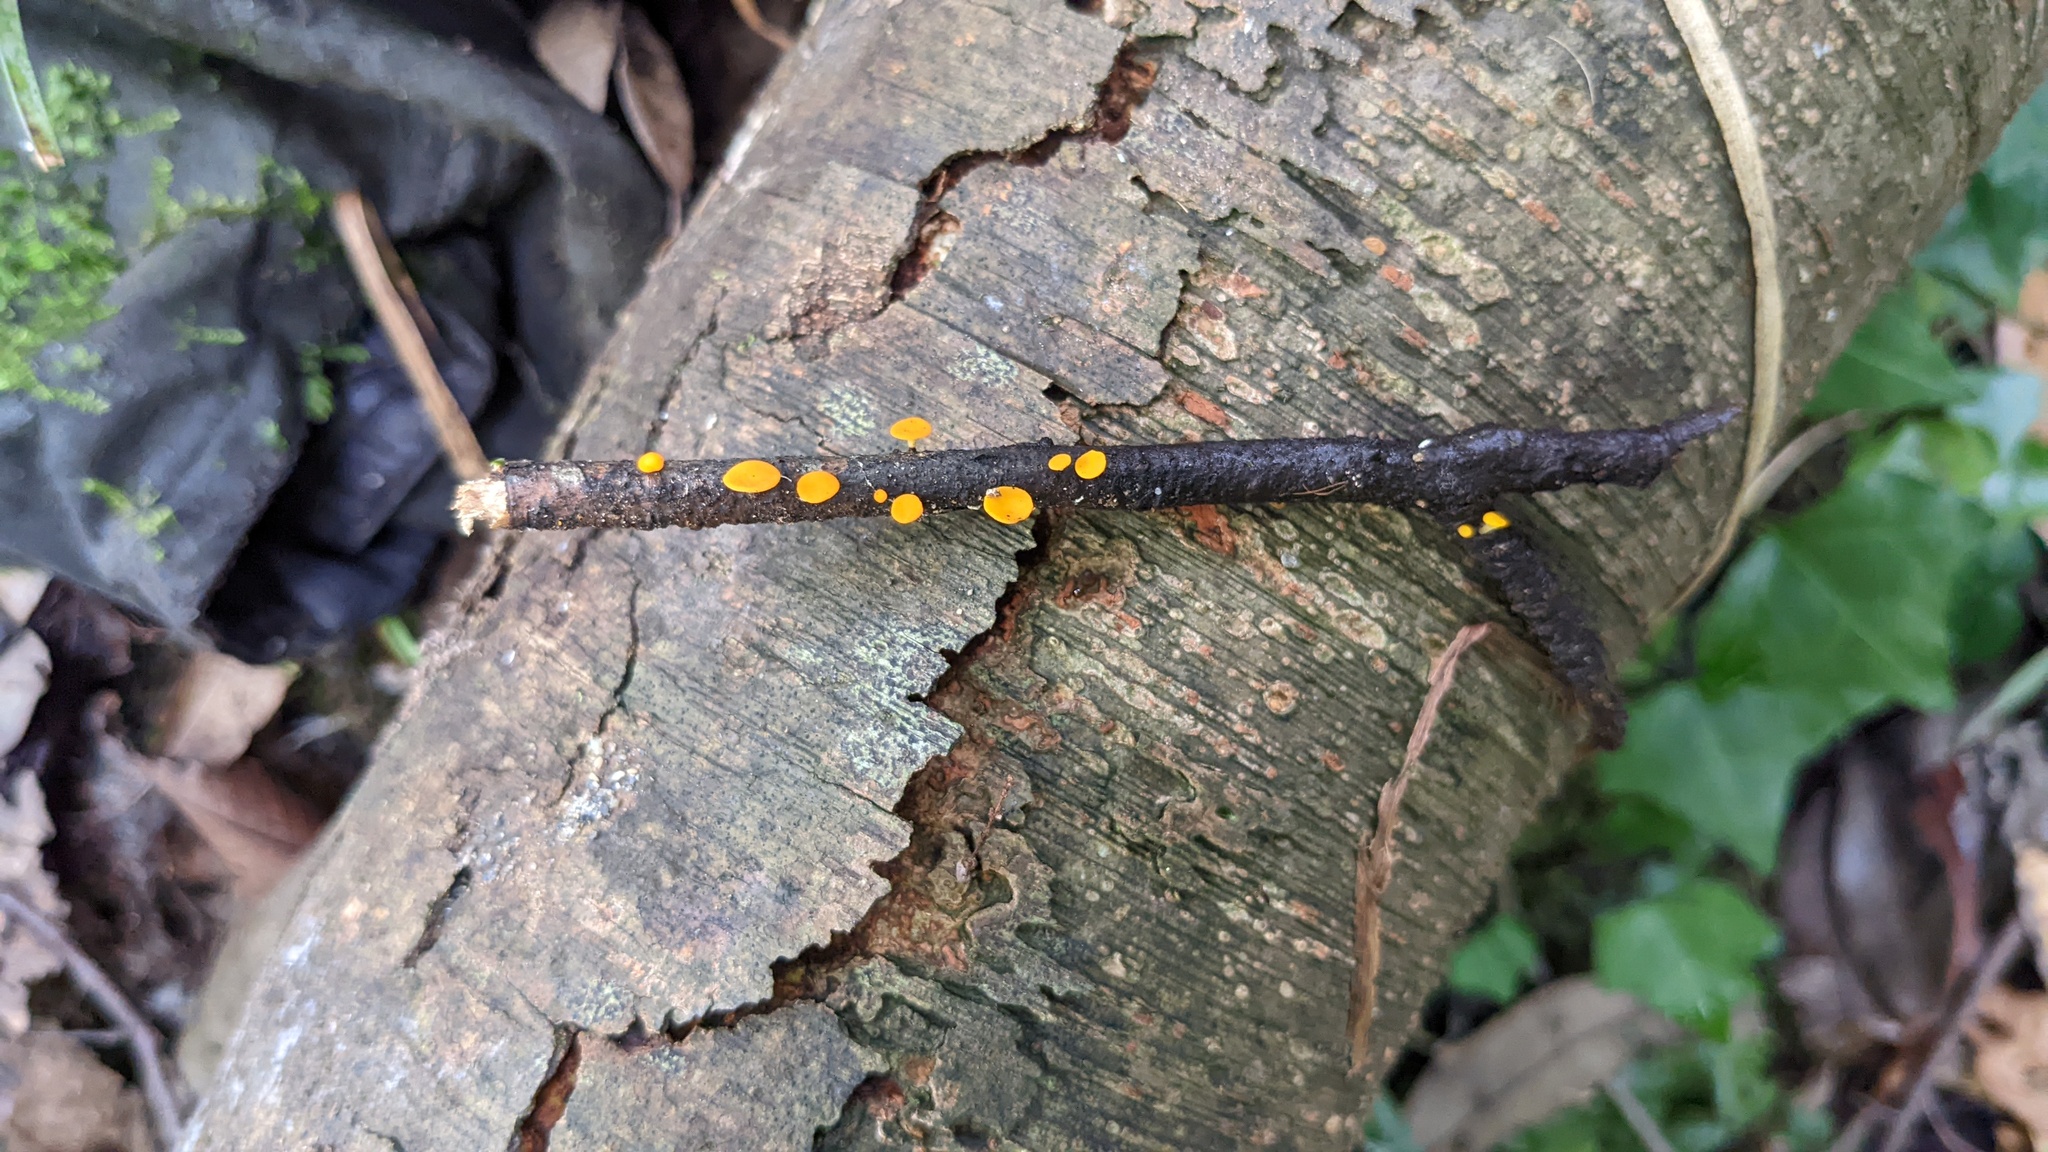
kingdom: Fungi
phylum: Ascomycota
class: Leotiomycetes
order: Helotiales
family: Helotiaceae
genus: Dicephalospora
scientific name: Dicephalospora rufocornea
